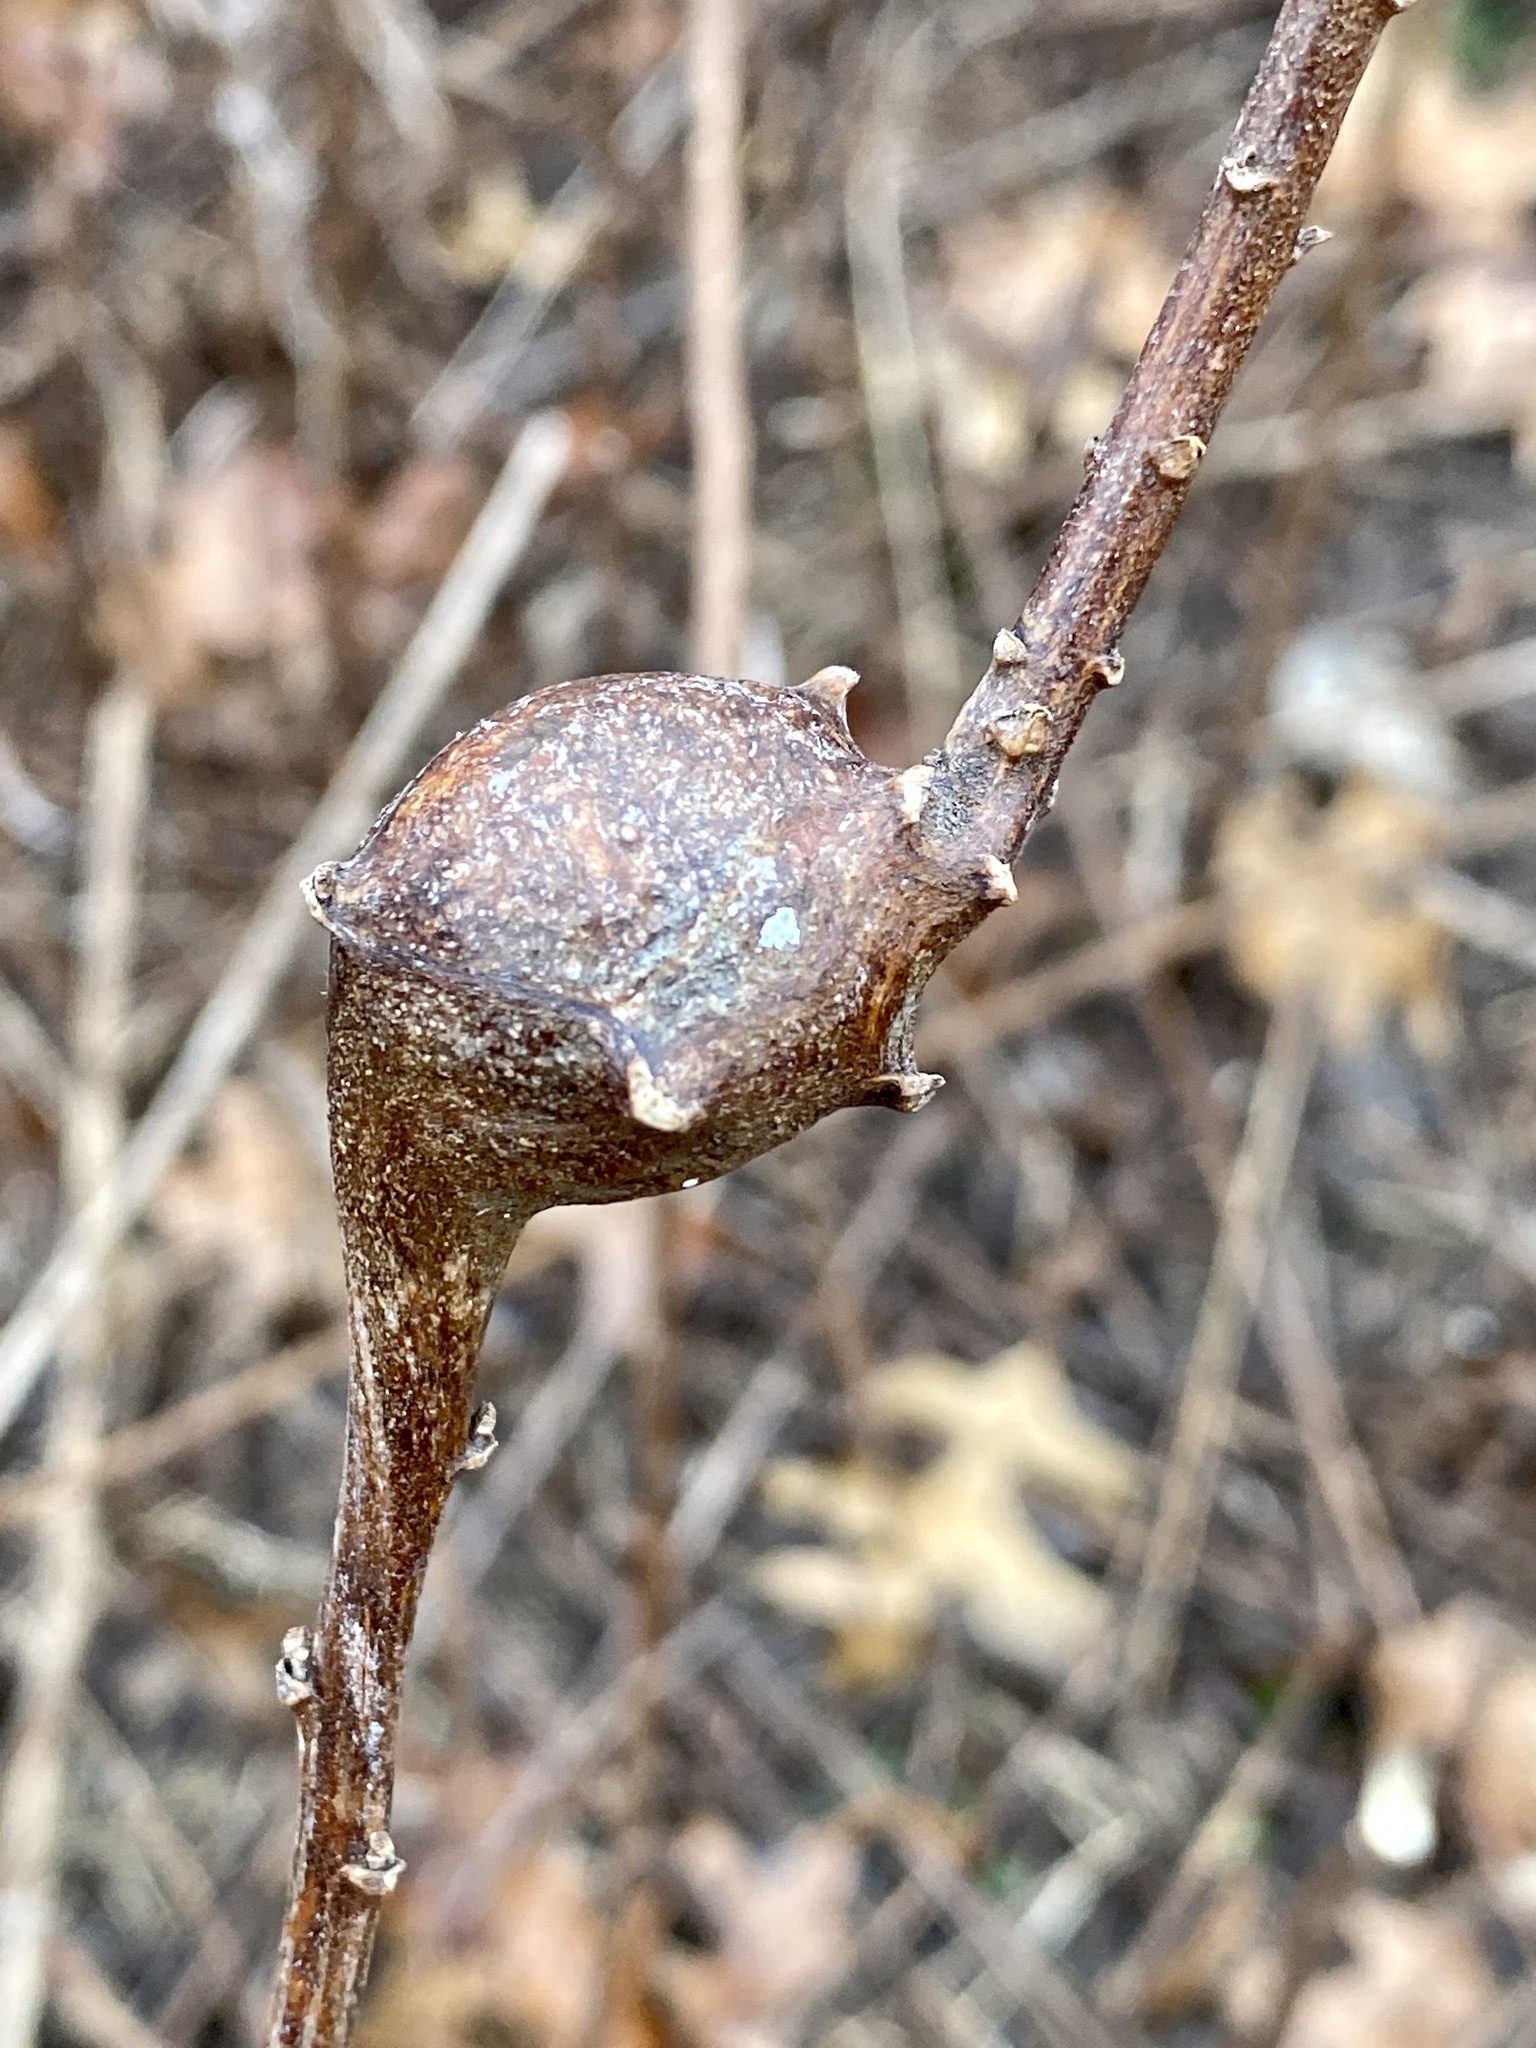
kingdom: Animalia
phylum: Arthropoda
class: Insecta
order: Diptera
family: Tephritidae
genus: Eurosta
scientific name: Eurosta solidaginis
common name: Goldenrod gall fly
